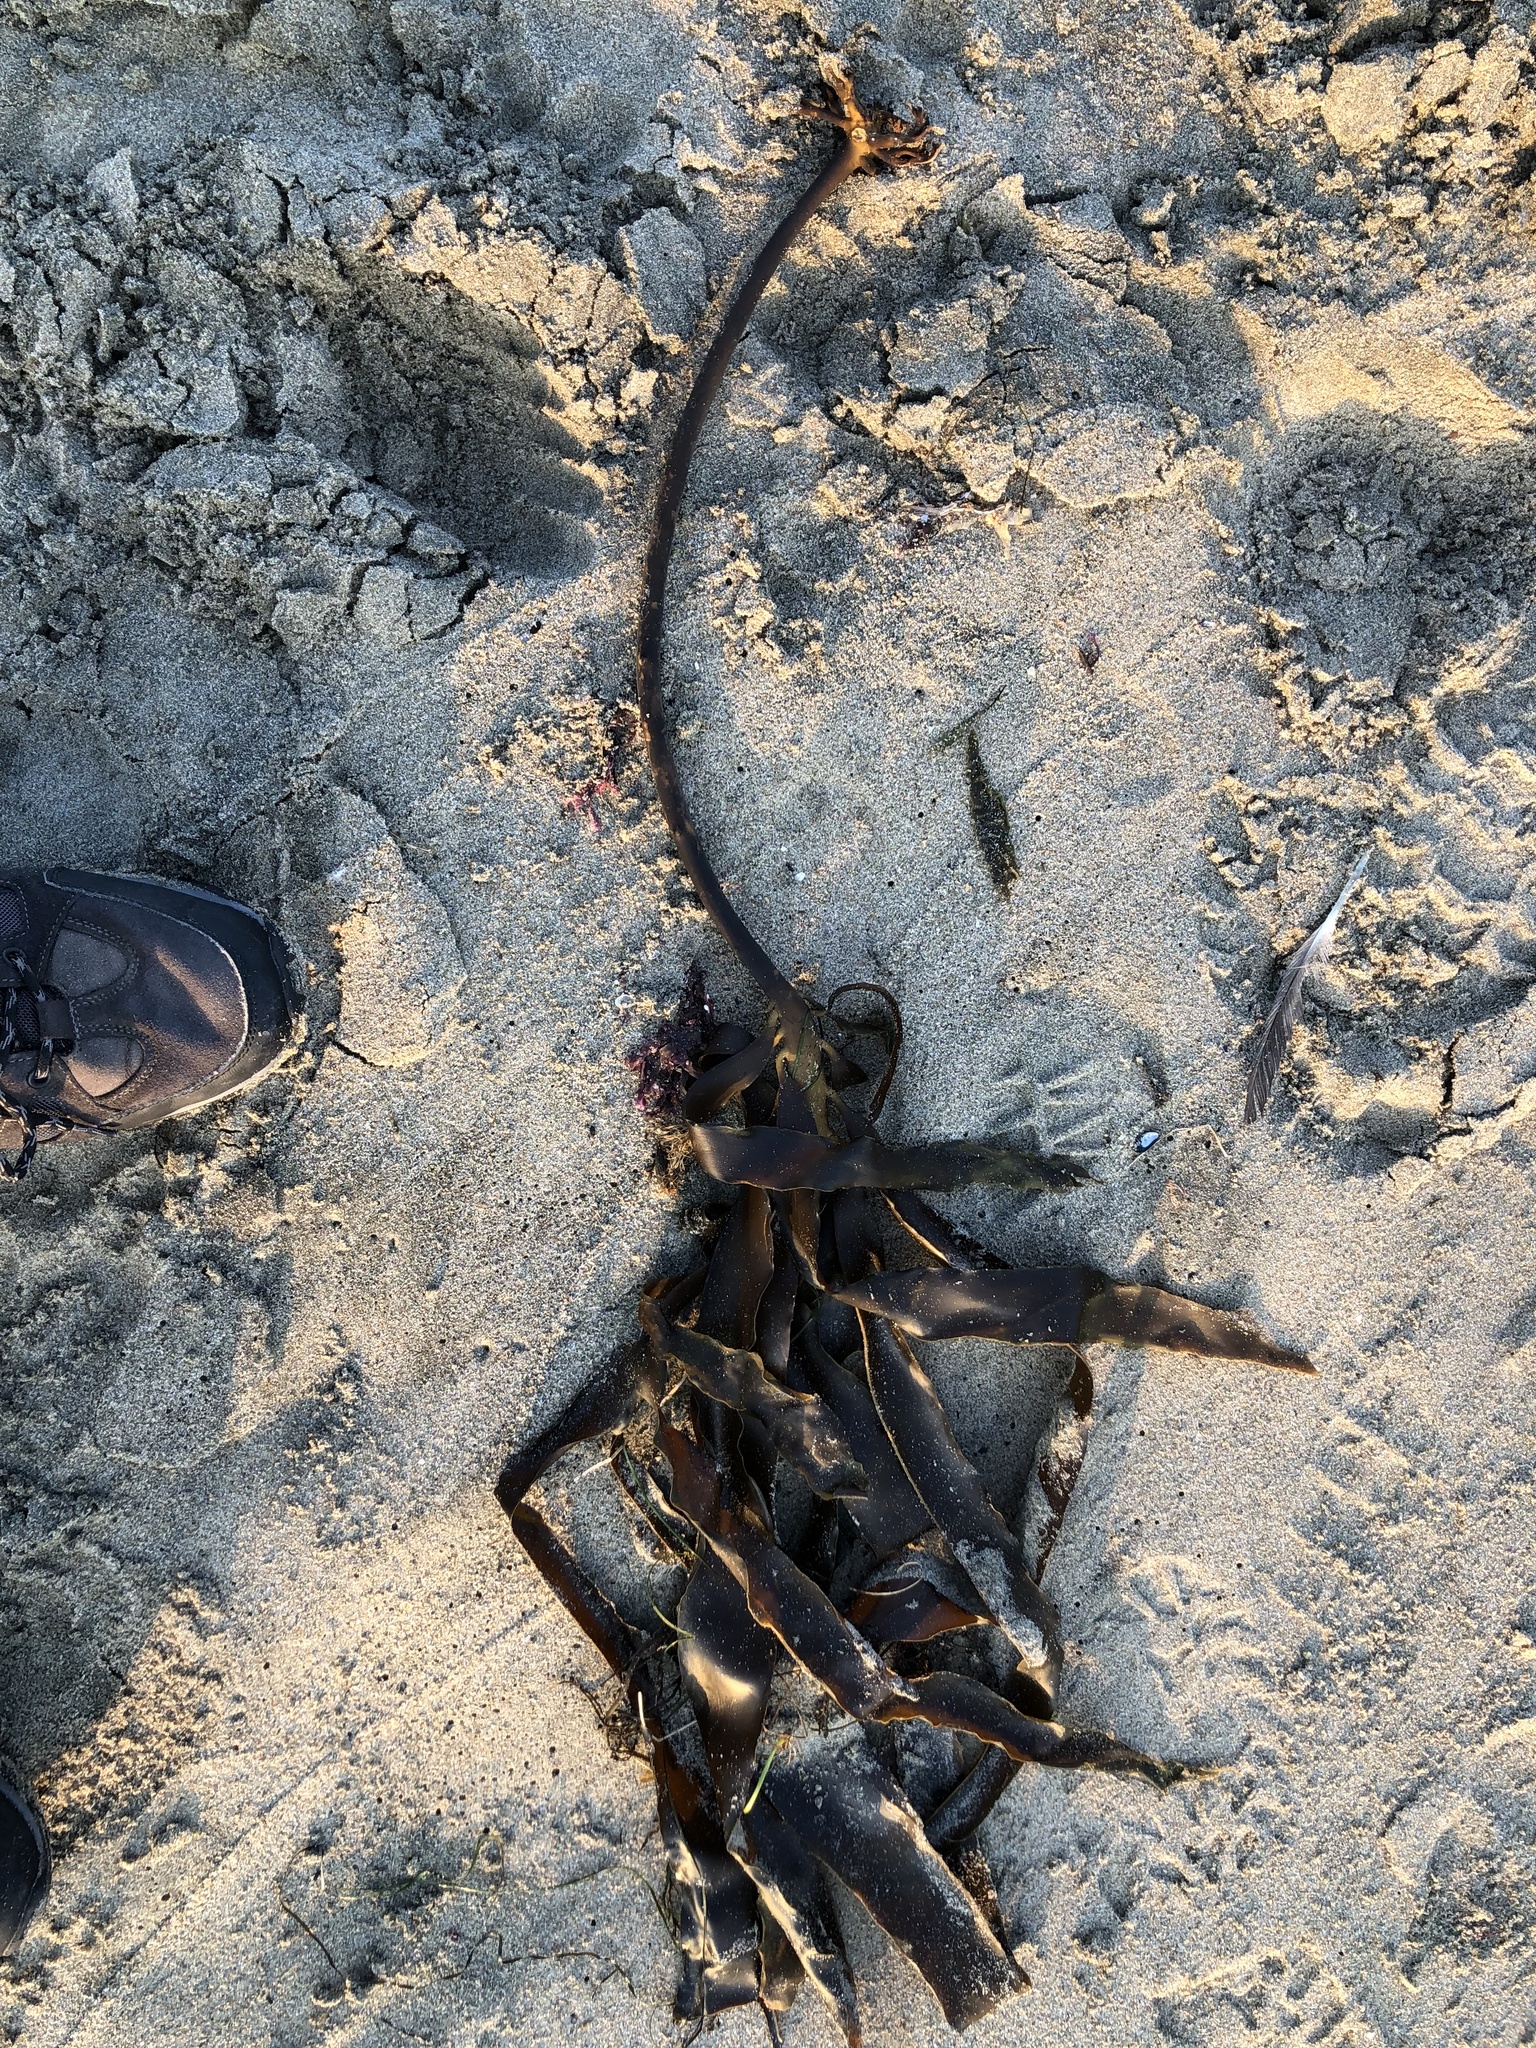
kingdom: Chromista
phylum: Ochrophyta
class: Phaeophyceae
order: Laminariales
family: Alariaceae
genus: Pterygophora
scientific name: Pterygophora californica
